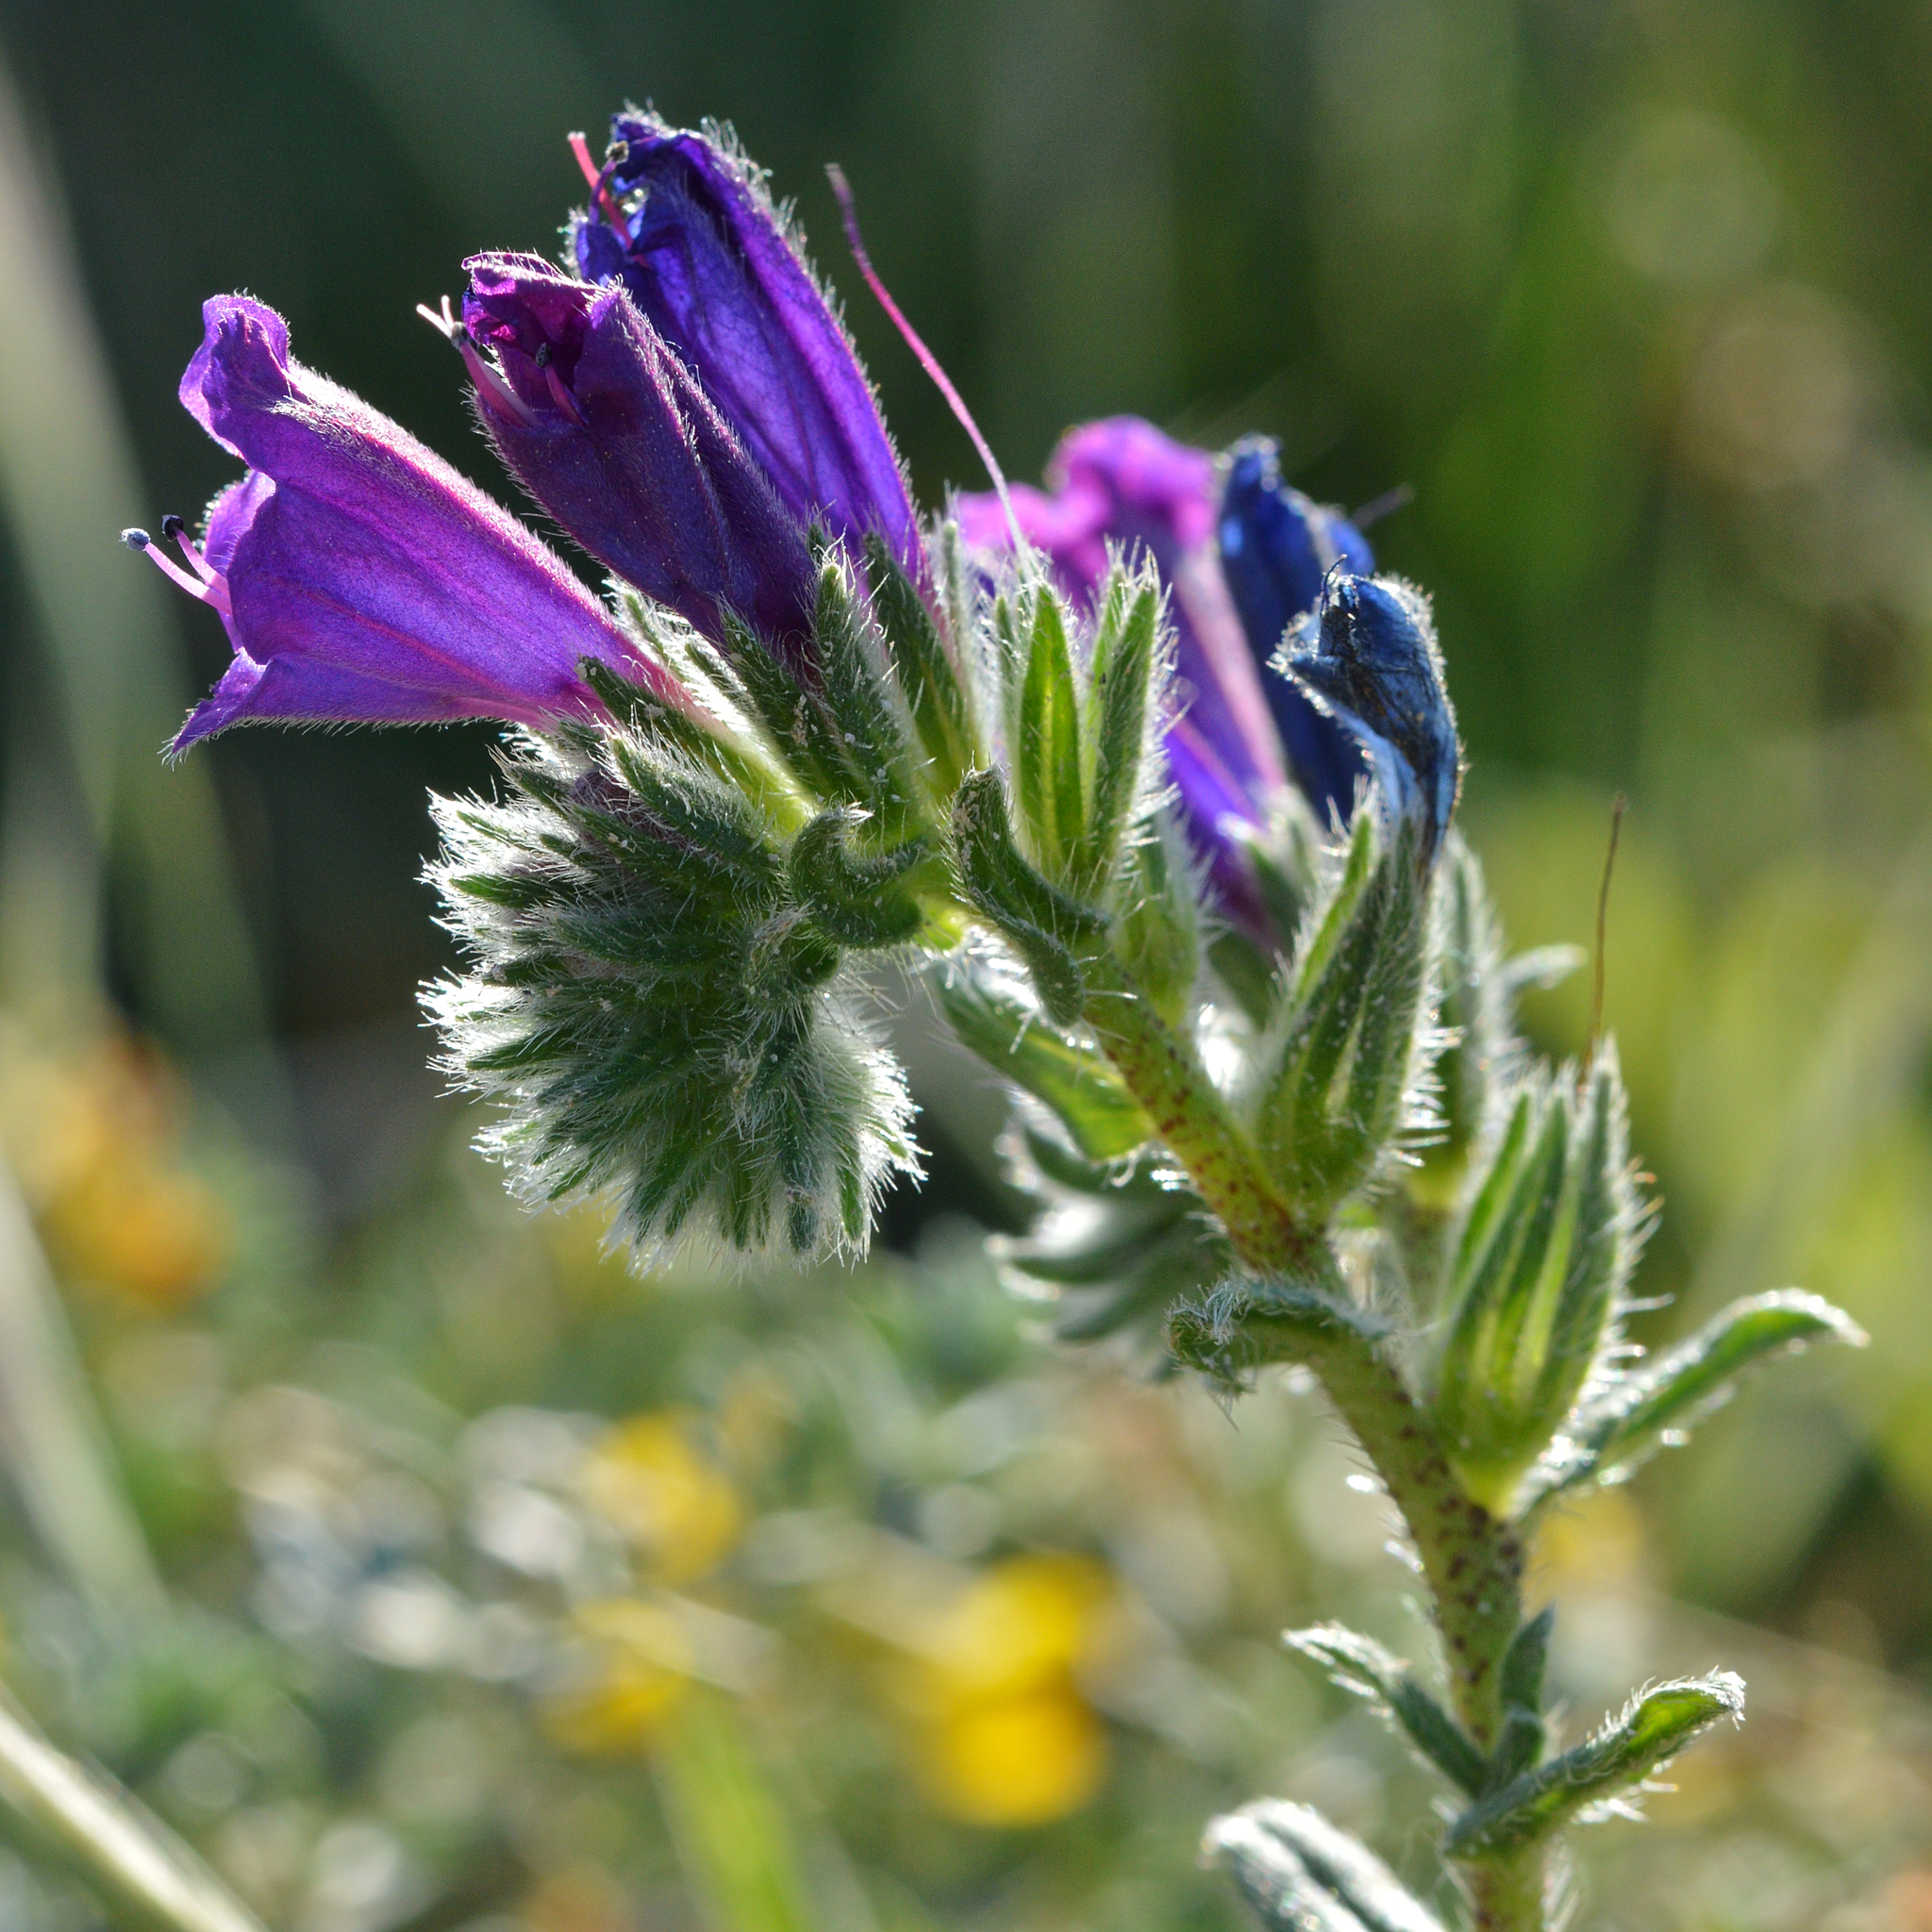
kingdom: Plantae
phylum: Tracheophyta
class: Magnoliopsida
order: Boraginales
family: Boraginaceae
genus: Echium
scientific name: Echium sabulicola
